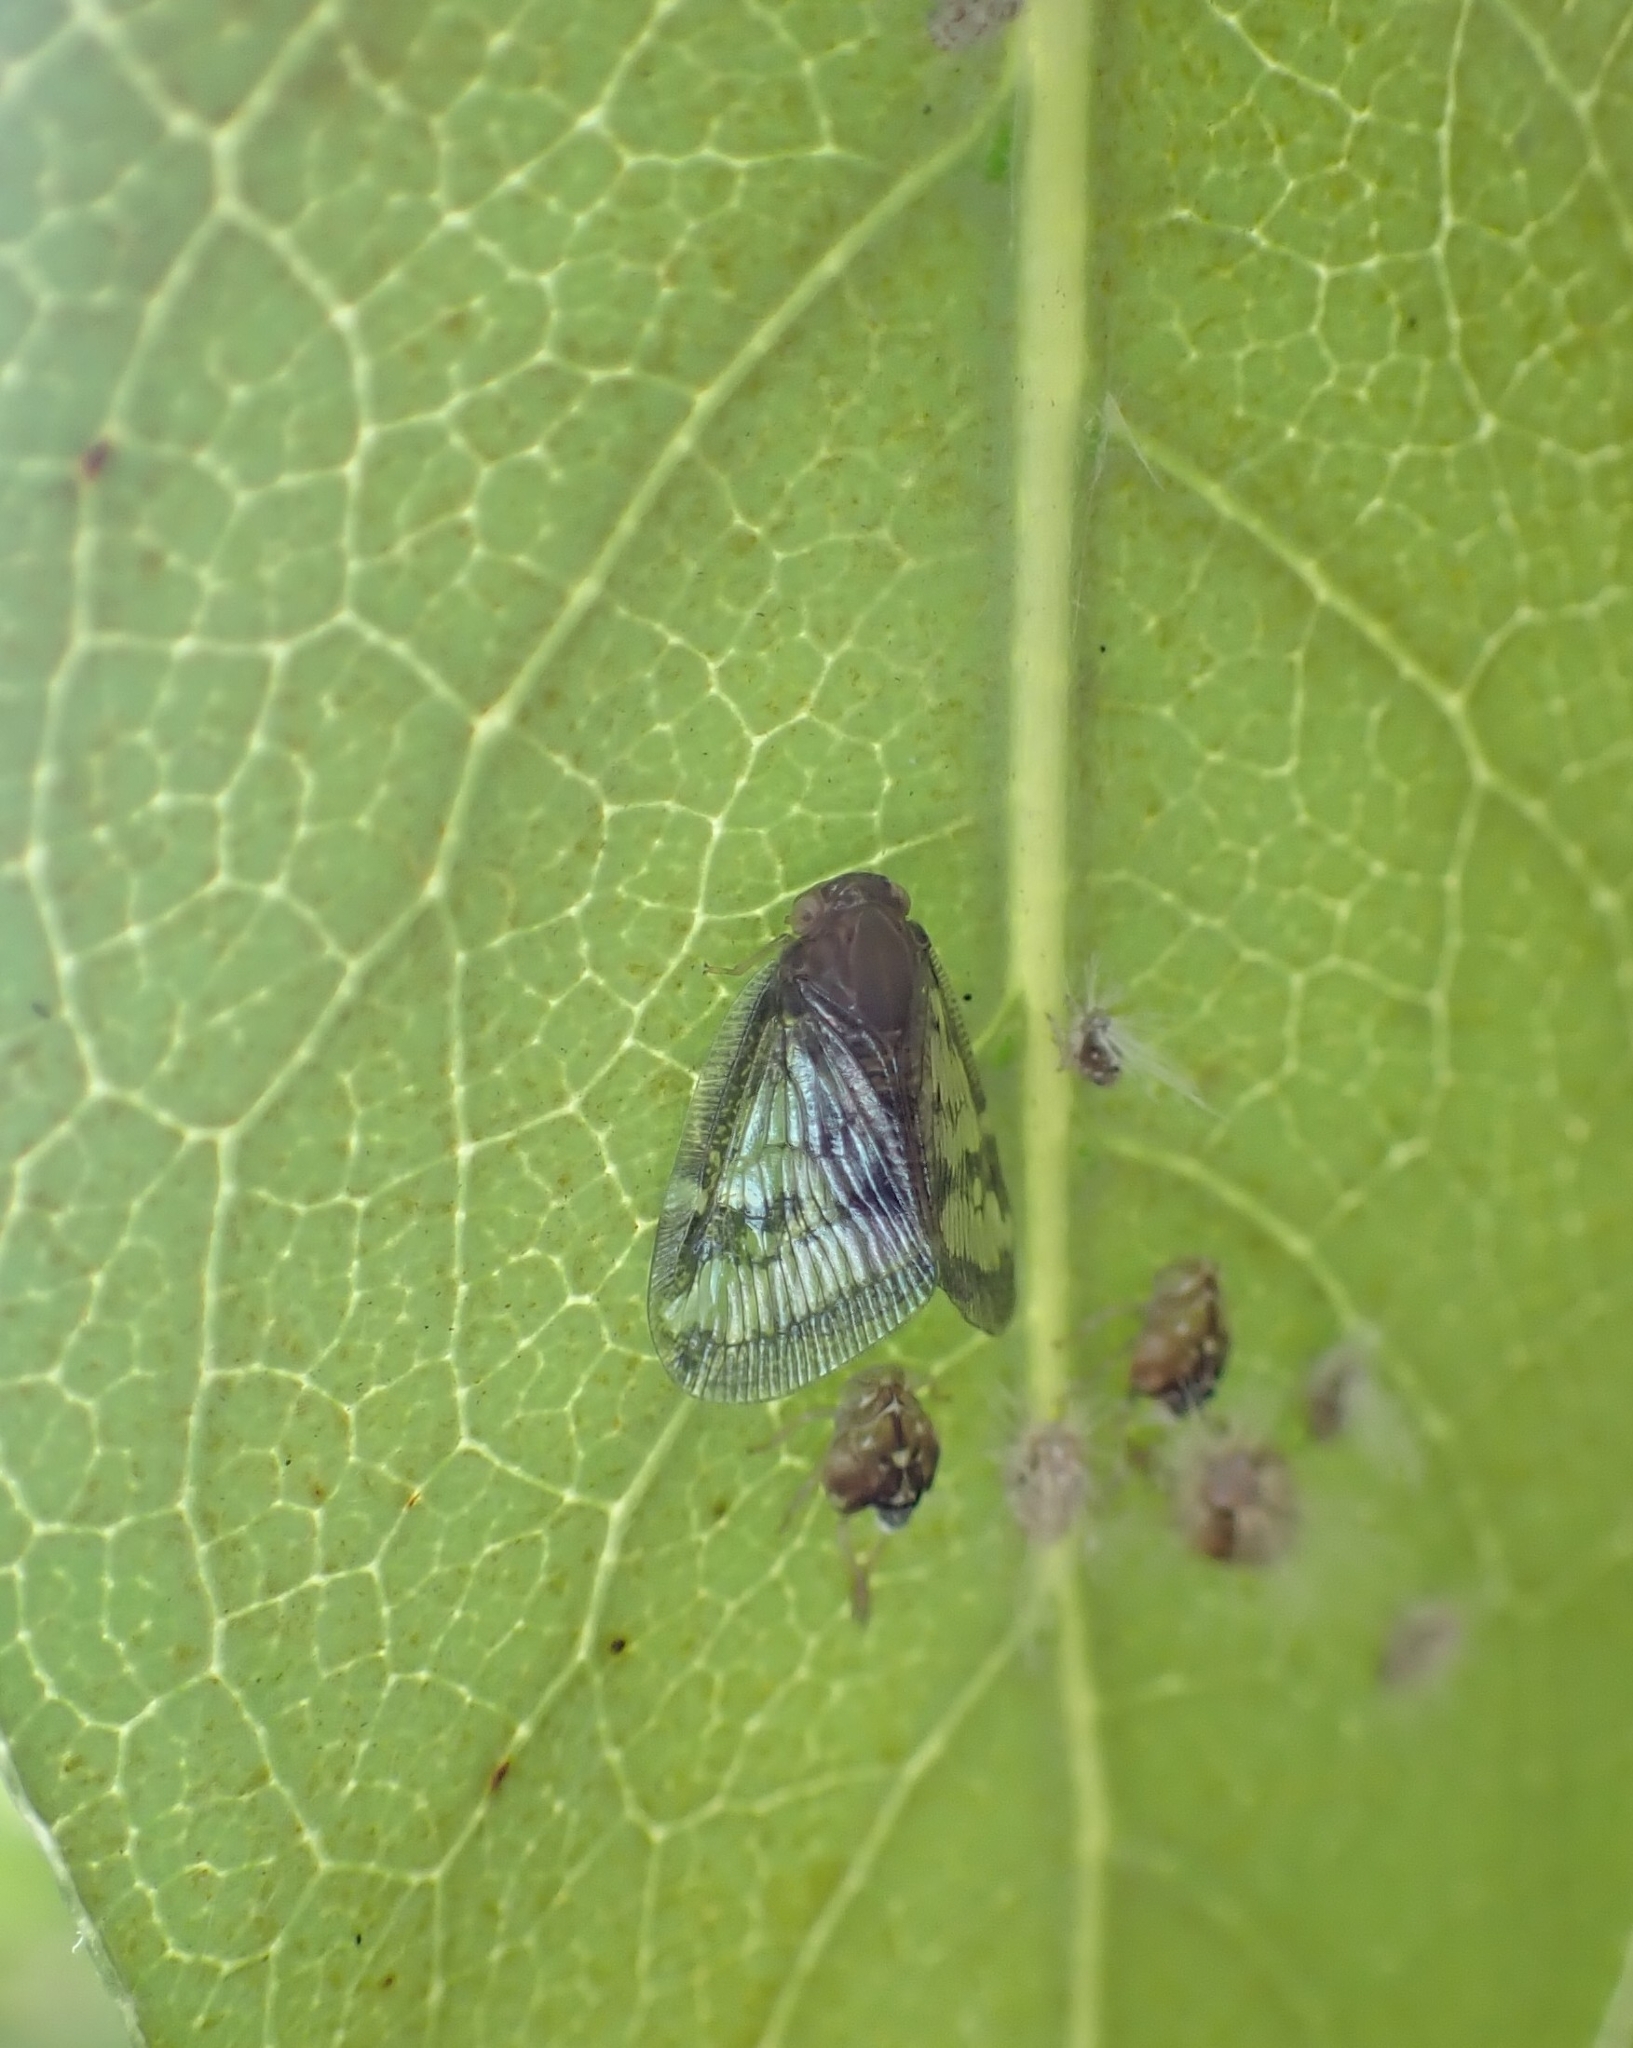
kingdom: Animalia
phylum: Arthropoda
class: Insecta
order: Hemiptera
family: Ricaniidae
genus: Scolypopa
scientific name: Scolypopa australis
